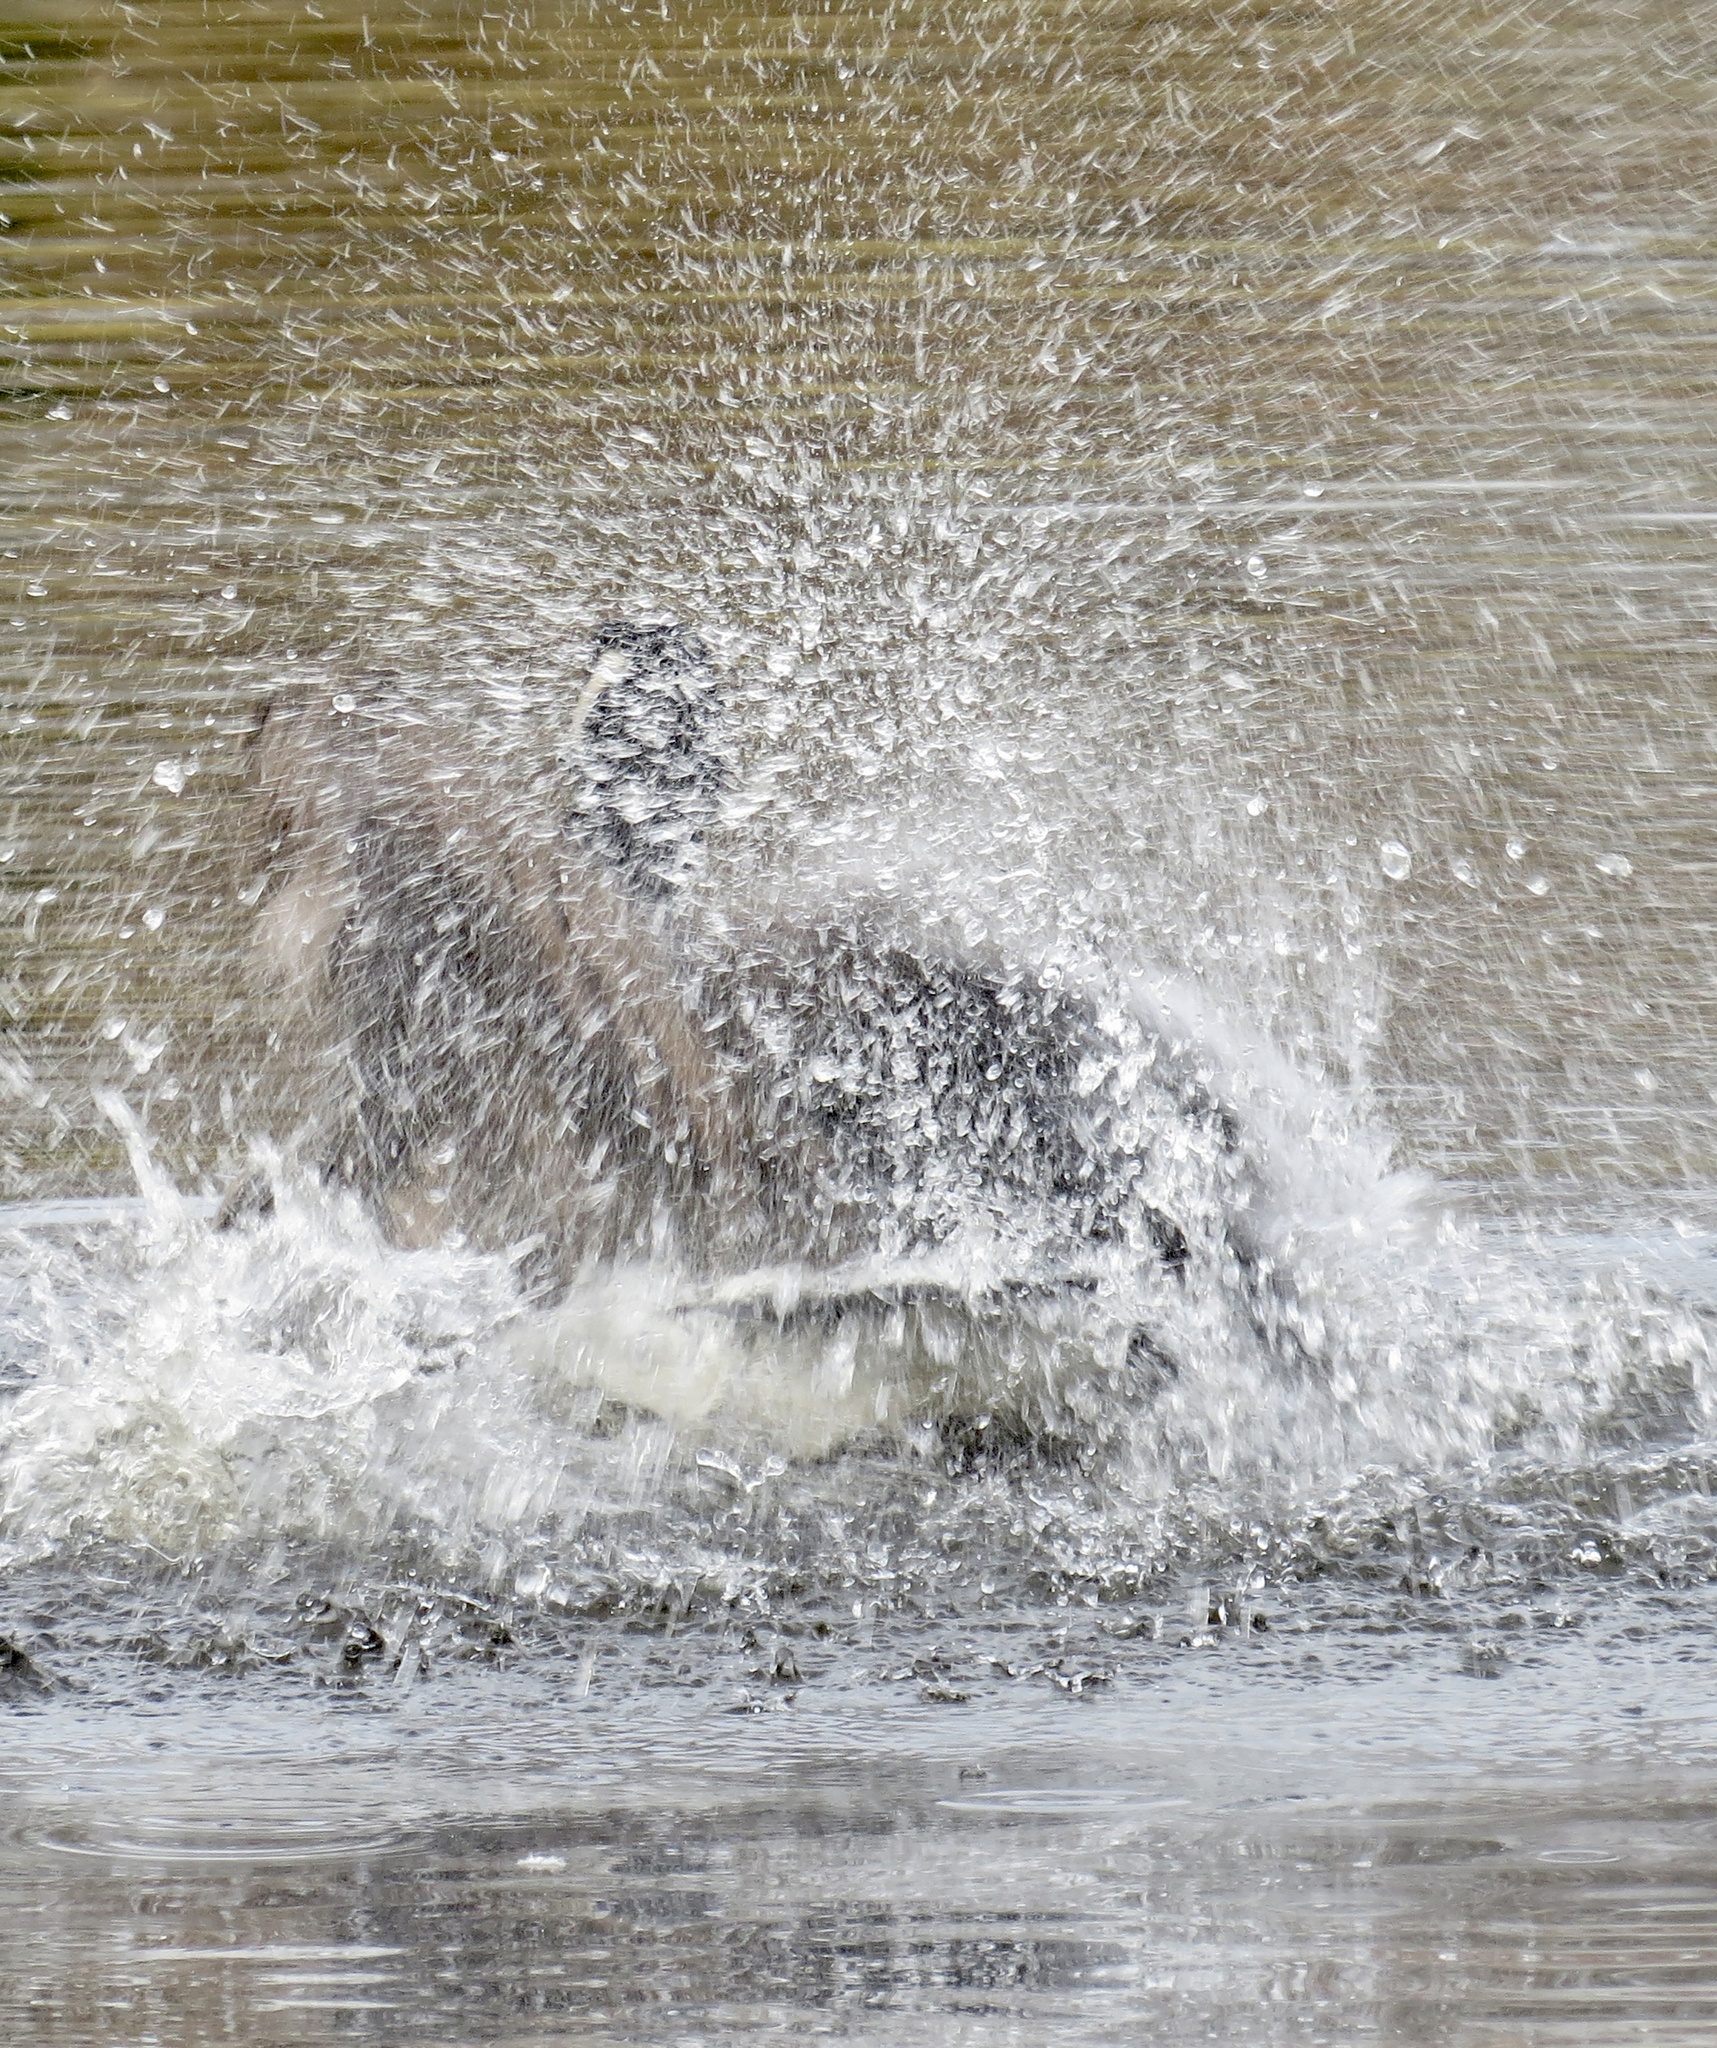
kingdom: Animalia
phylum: Chordata
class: Aves
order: Anseriformes
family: Anatidae
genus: Branta
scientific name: Branta canadensis
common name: Canada goose
